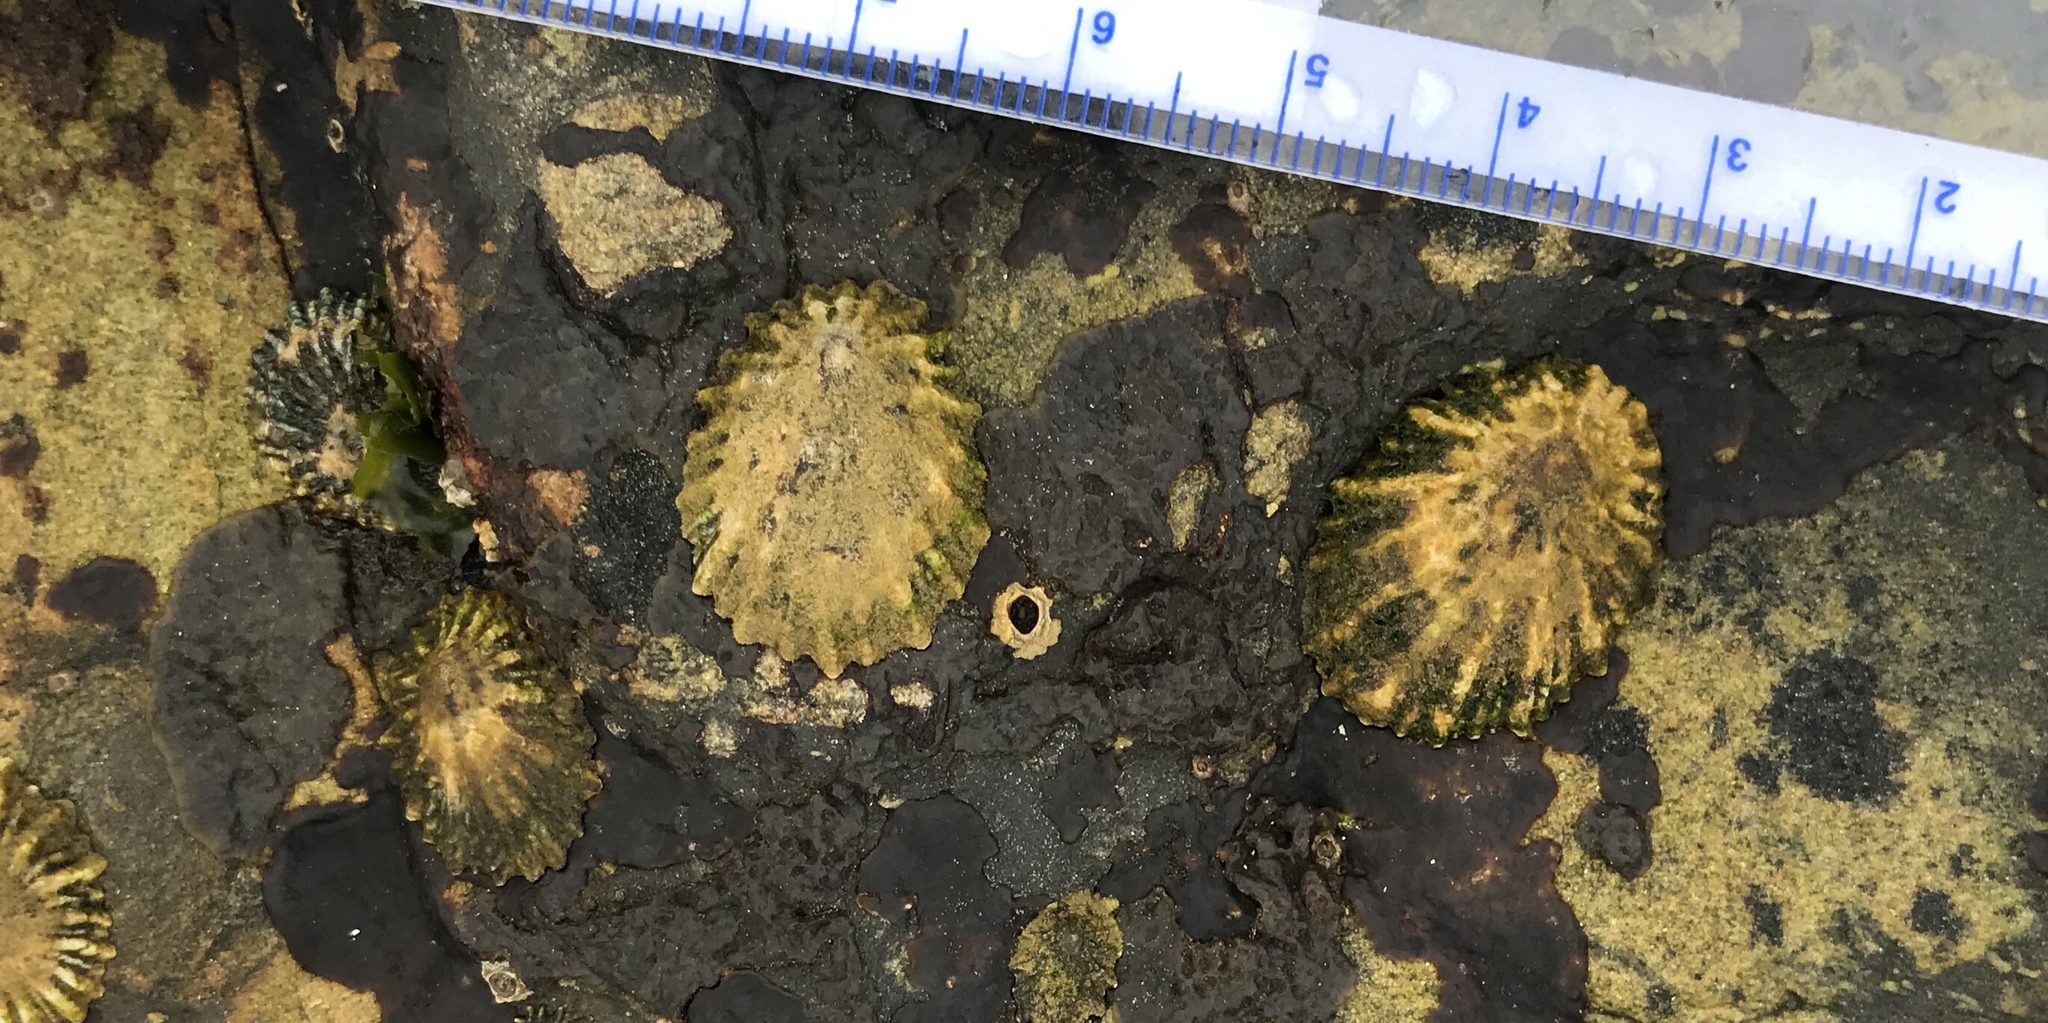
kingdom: Animalia
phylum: Mollusca
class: Gastropoda
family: Lottiidae
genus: Lottia
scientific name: Lottia scabra
